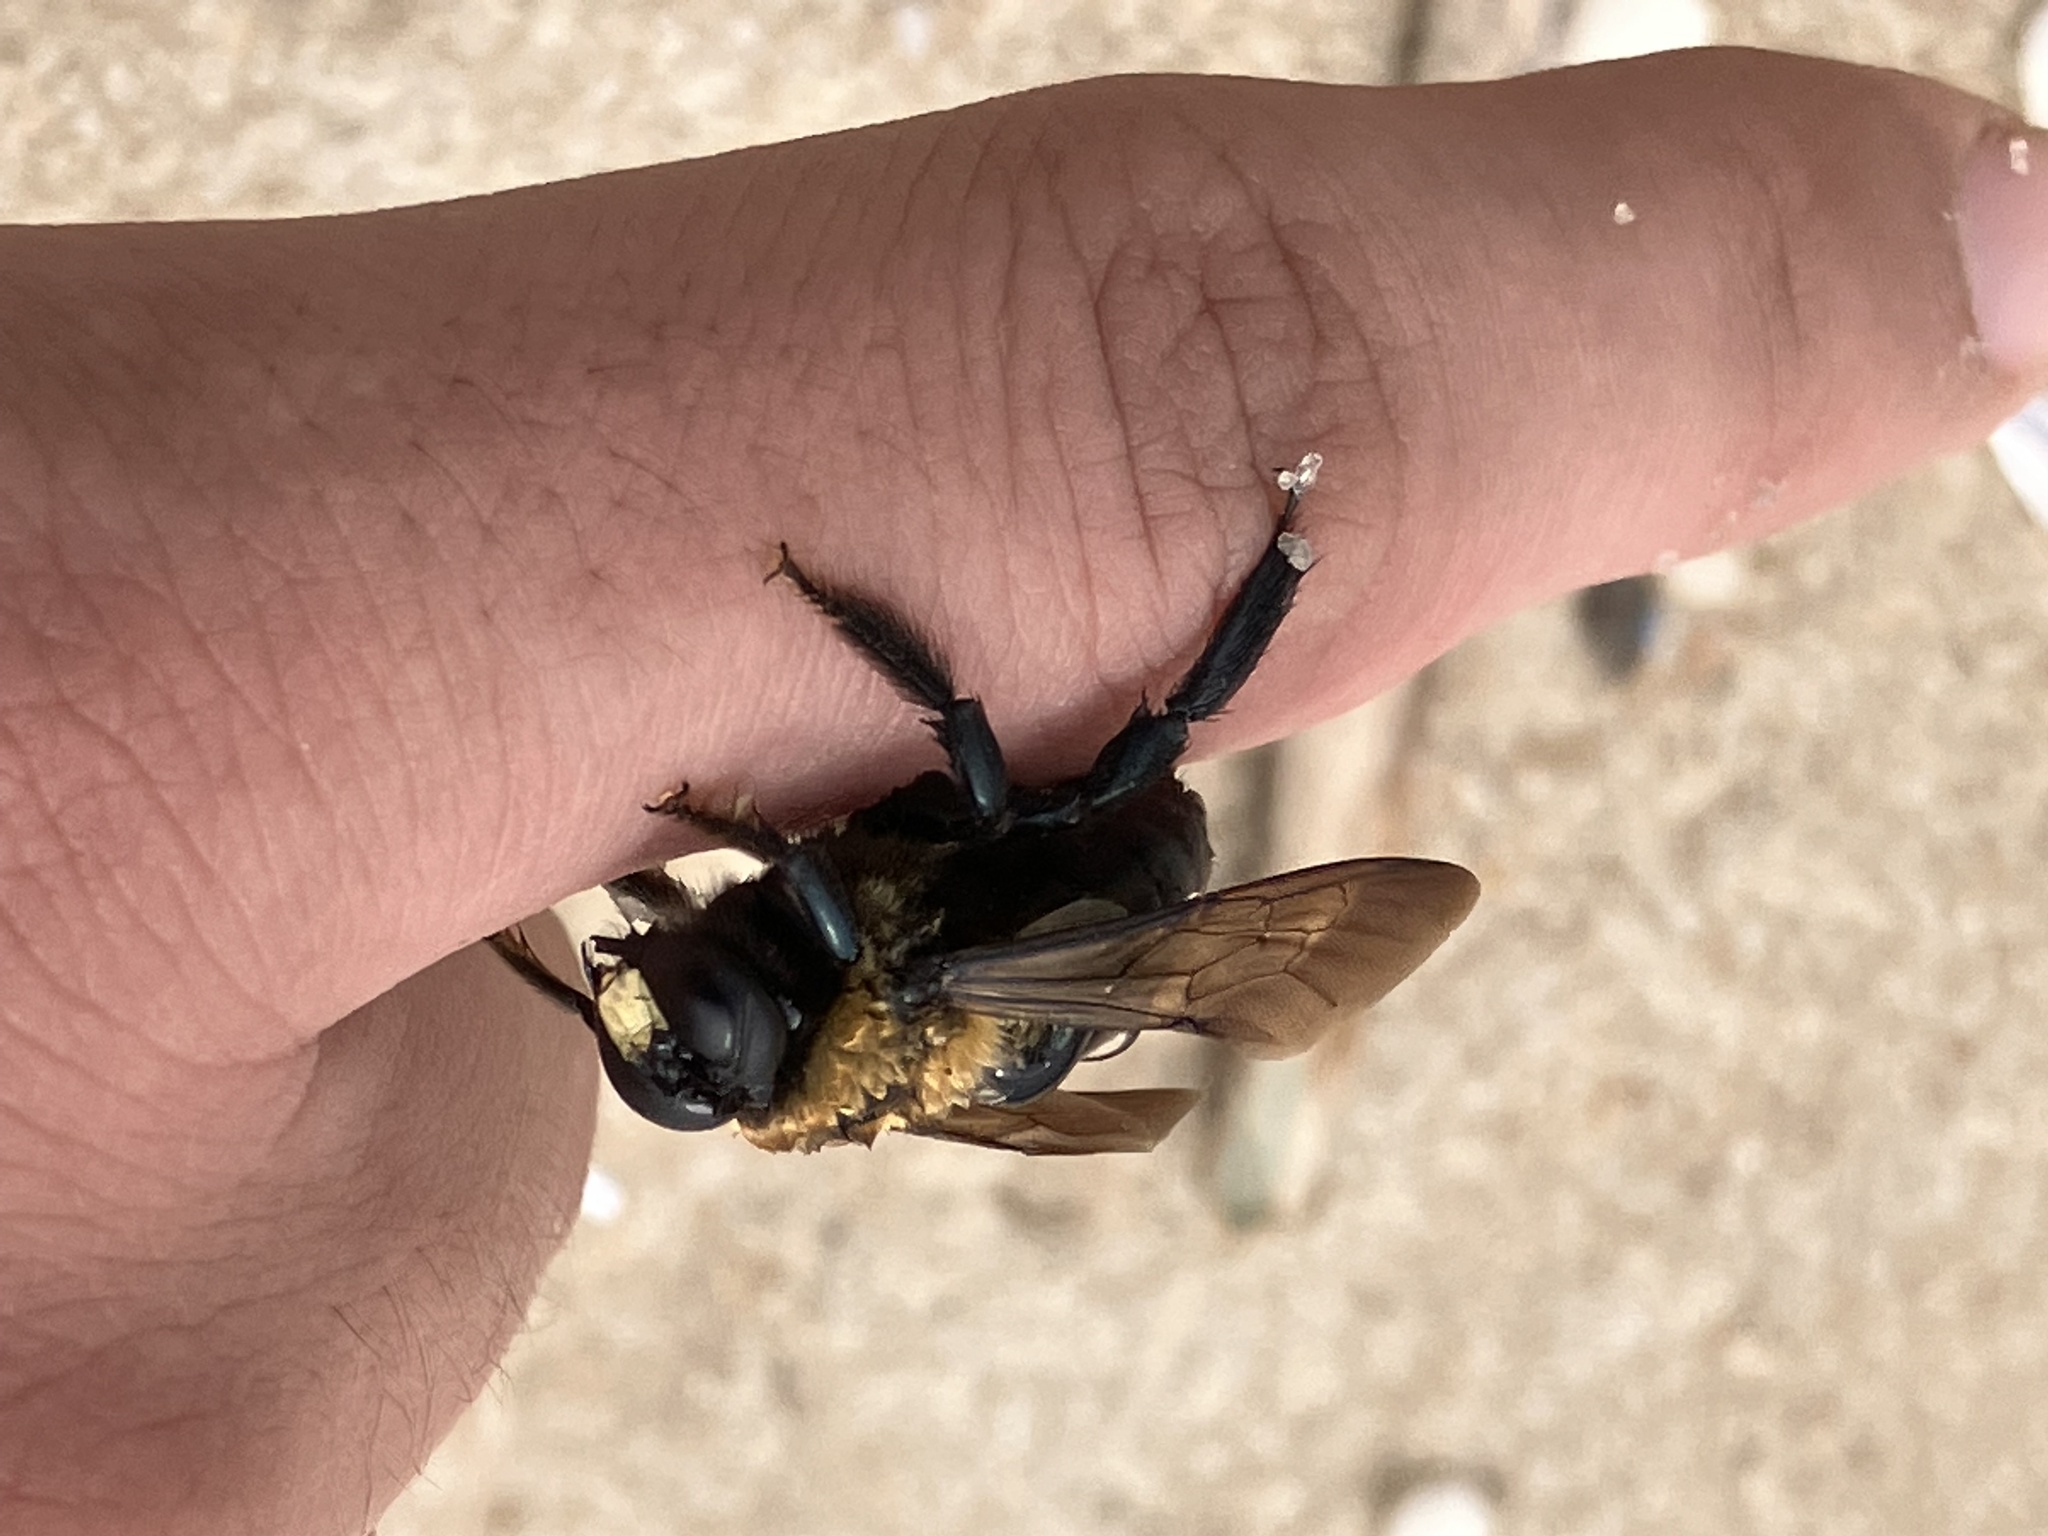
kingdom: Animalia
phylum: Arthropoda
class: Insecta
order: Hymenoptera
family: Apidae
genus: Xylocopa
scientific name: Xylocopa virginica
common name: Carpenter bee
